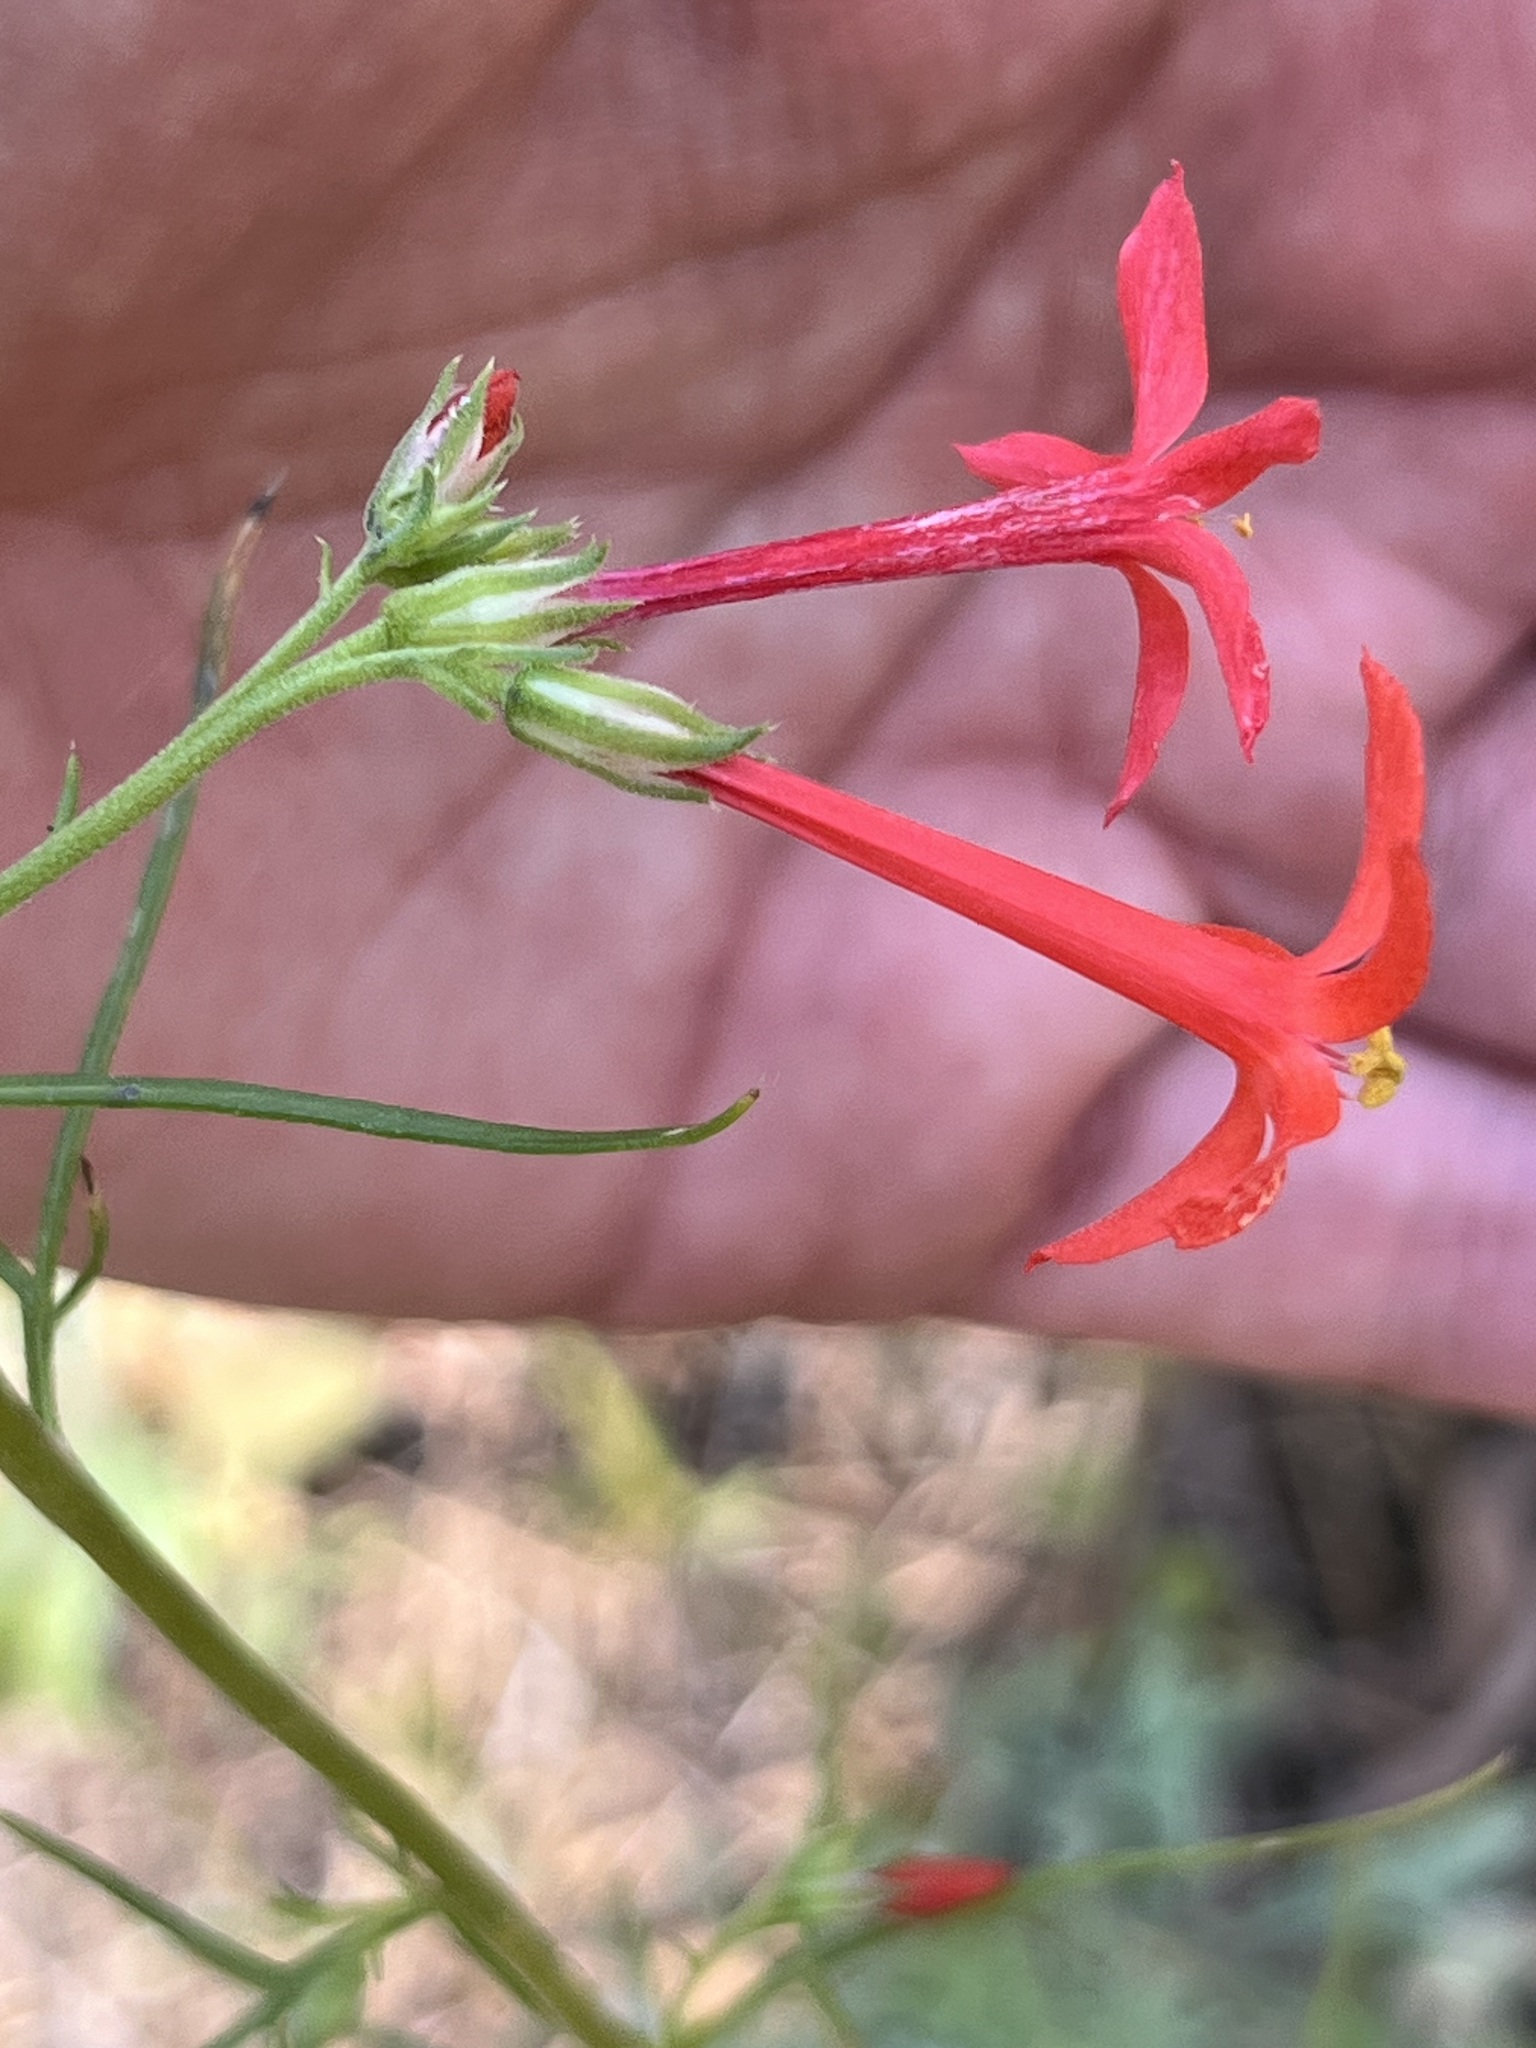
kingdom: Plantae
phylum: Tracheophyta
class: Magnoliopsida
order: Ericales
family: Polemoniaceae
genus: Ipomopsis
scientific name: Ipomopsis aggregata
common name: Scarlet gilia
